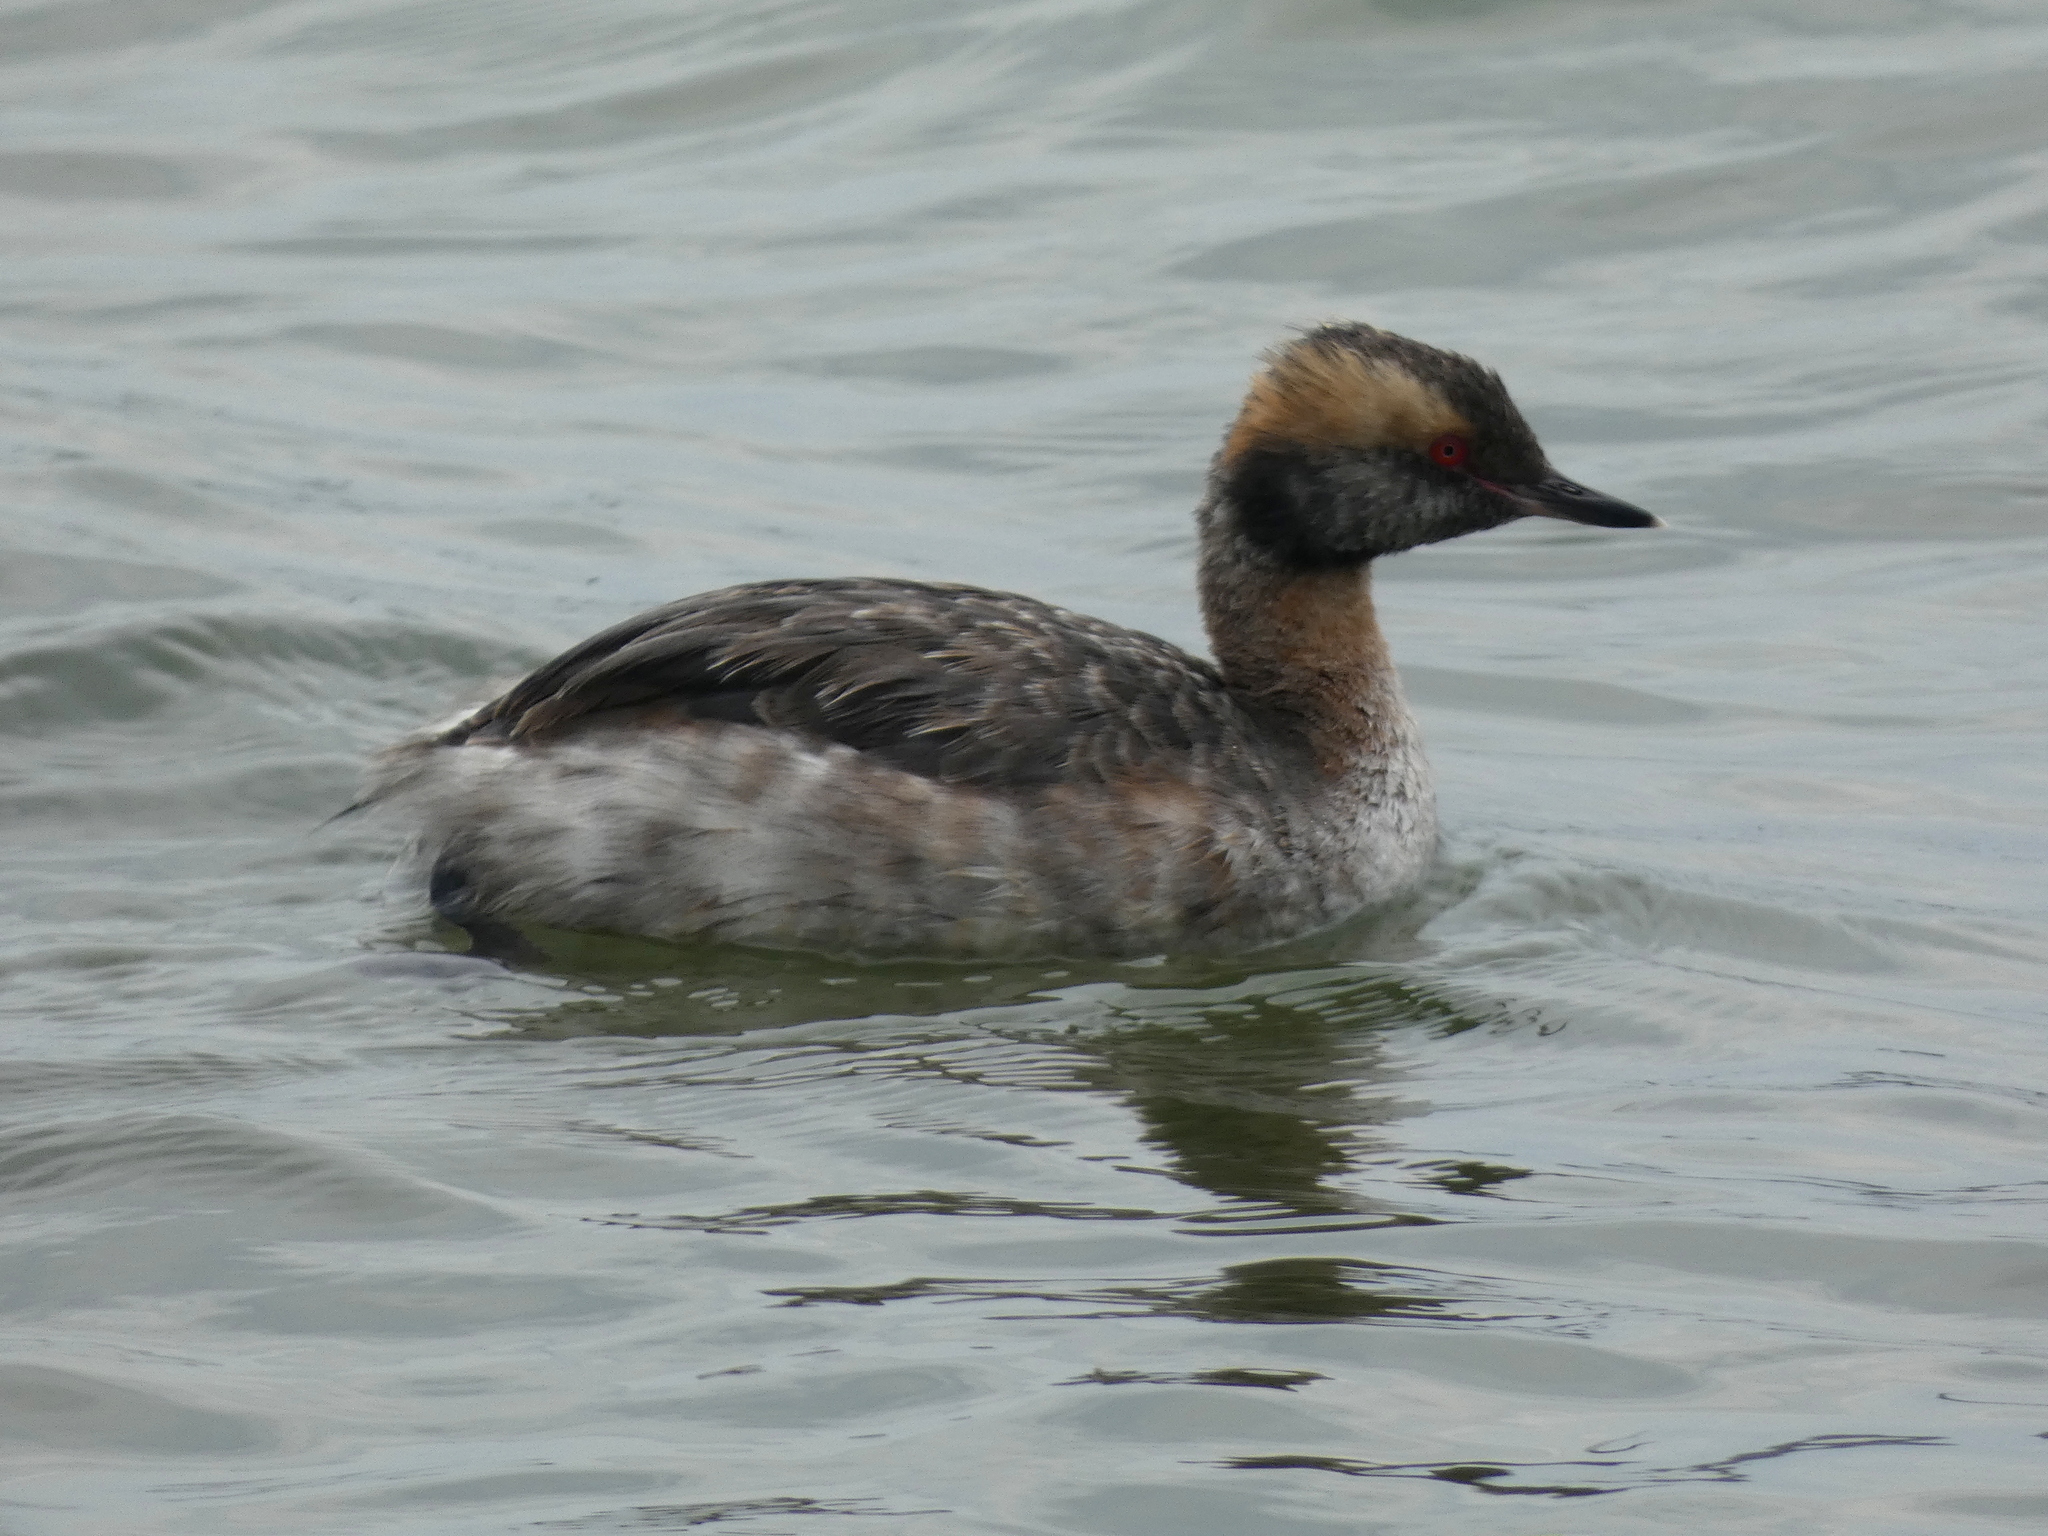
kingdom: Animalia
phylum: Chordata
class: Aves
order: Podicipediformes
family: Podicipedidae
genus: Podiceps
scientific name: Podiceps auritus
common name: Horned grebe
